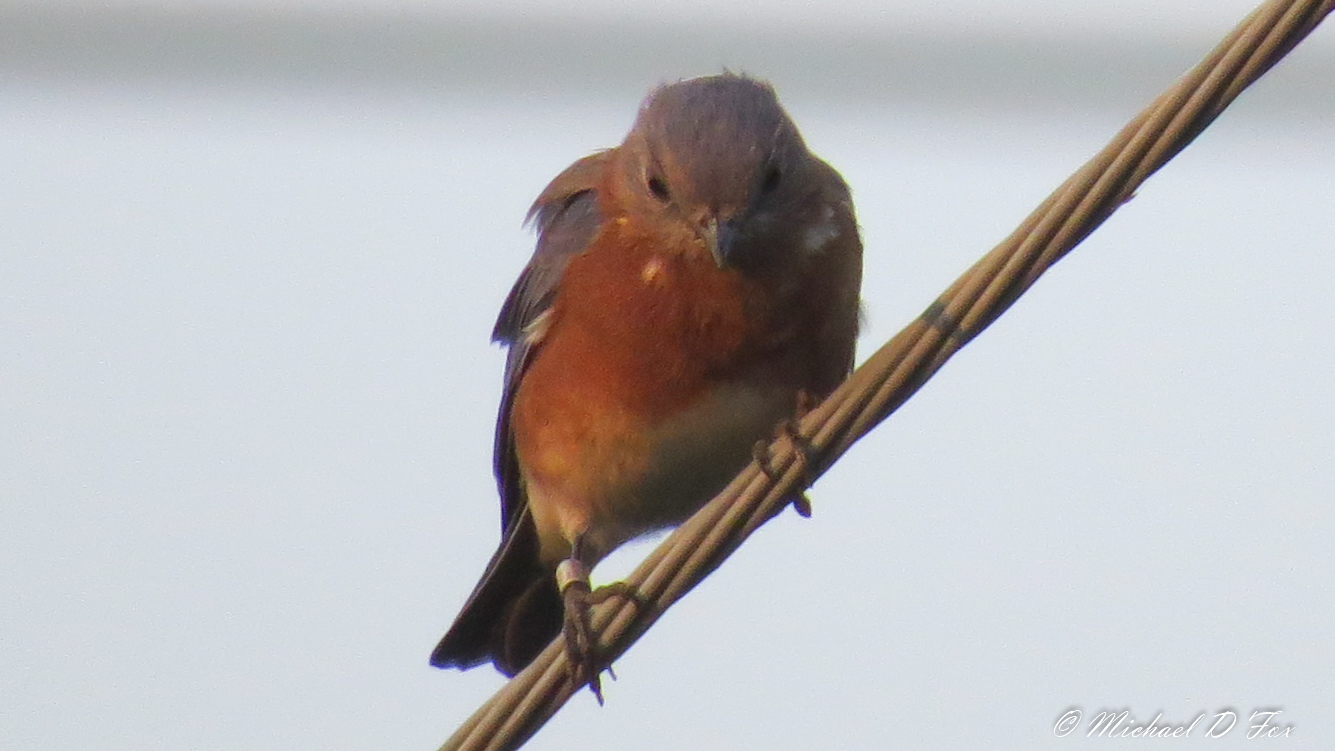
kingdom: Animalia
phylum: Chordata
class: Aves
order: Passeriformes
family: Turdidae
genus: Sialia
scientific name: Sialia sialis
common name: Eastern bluebird
